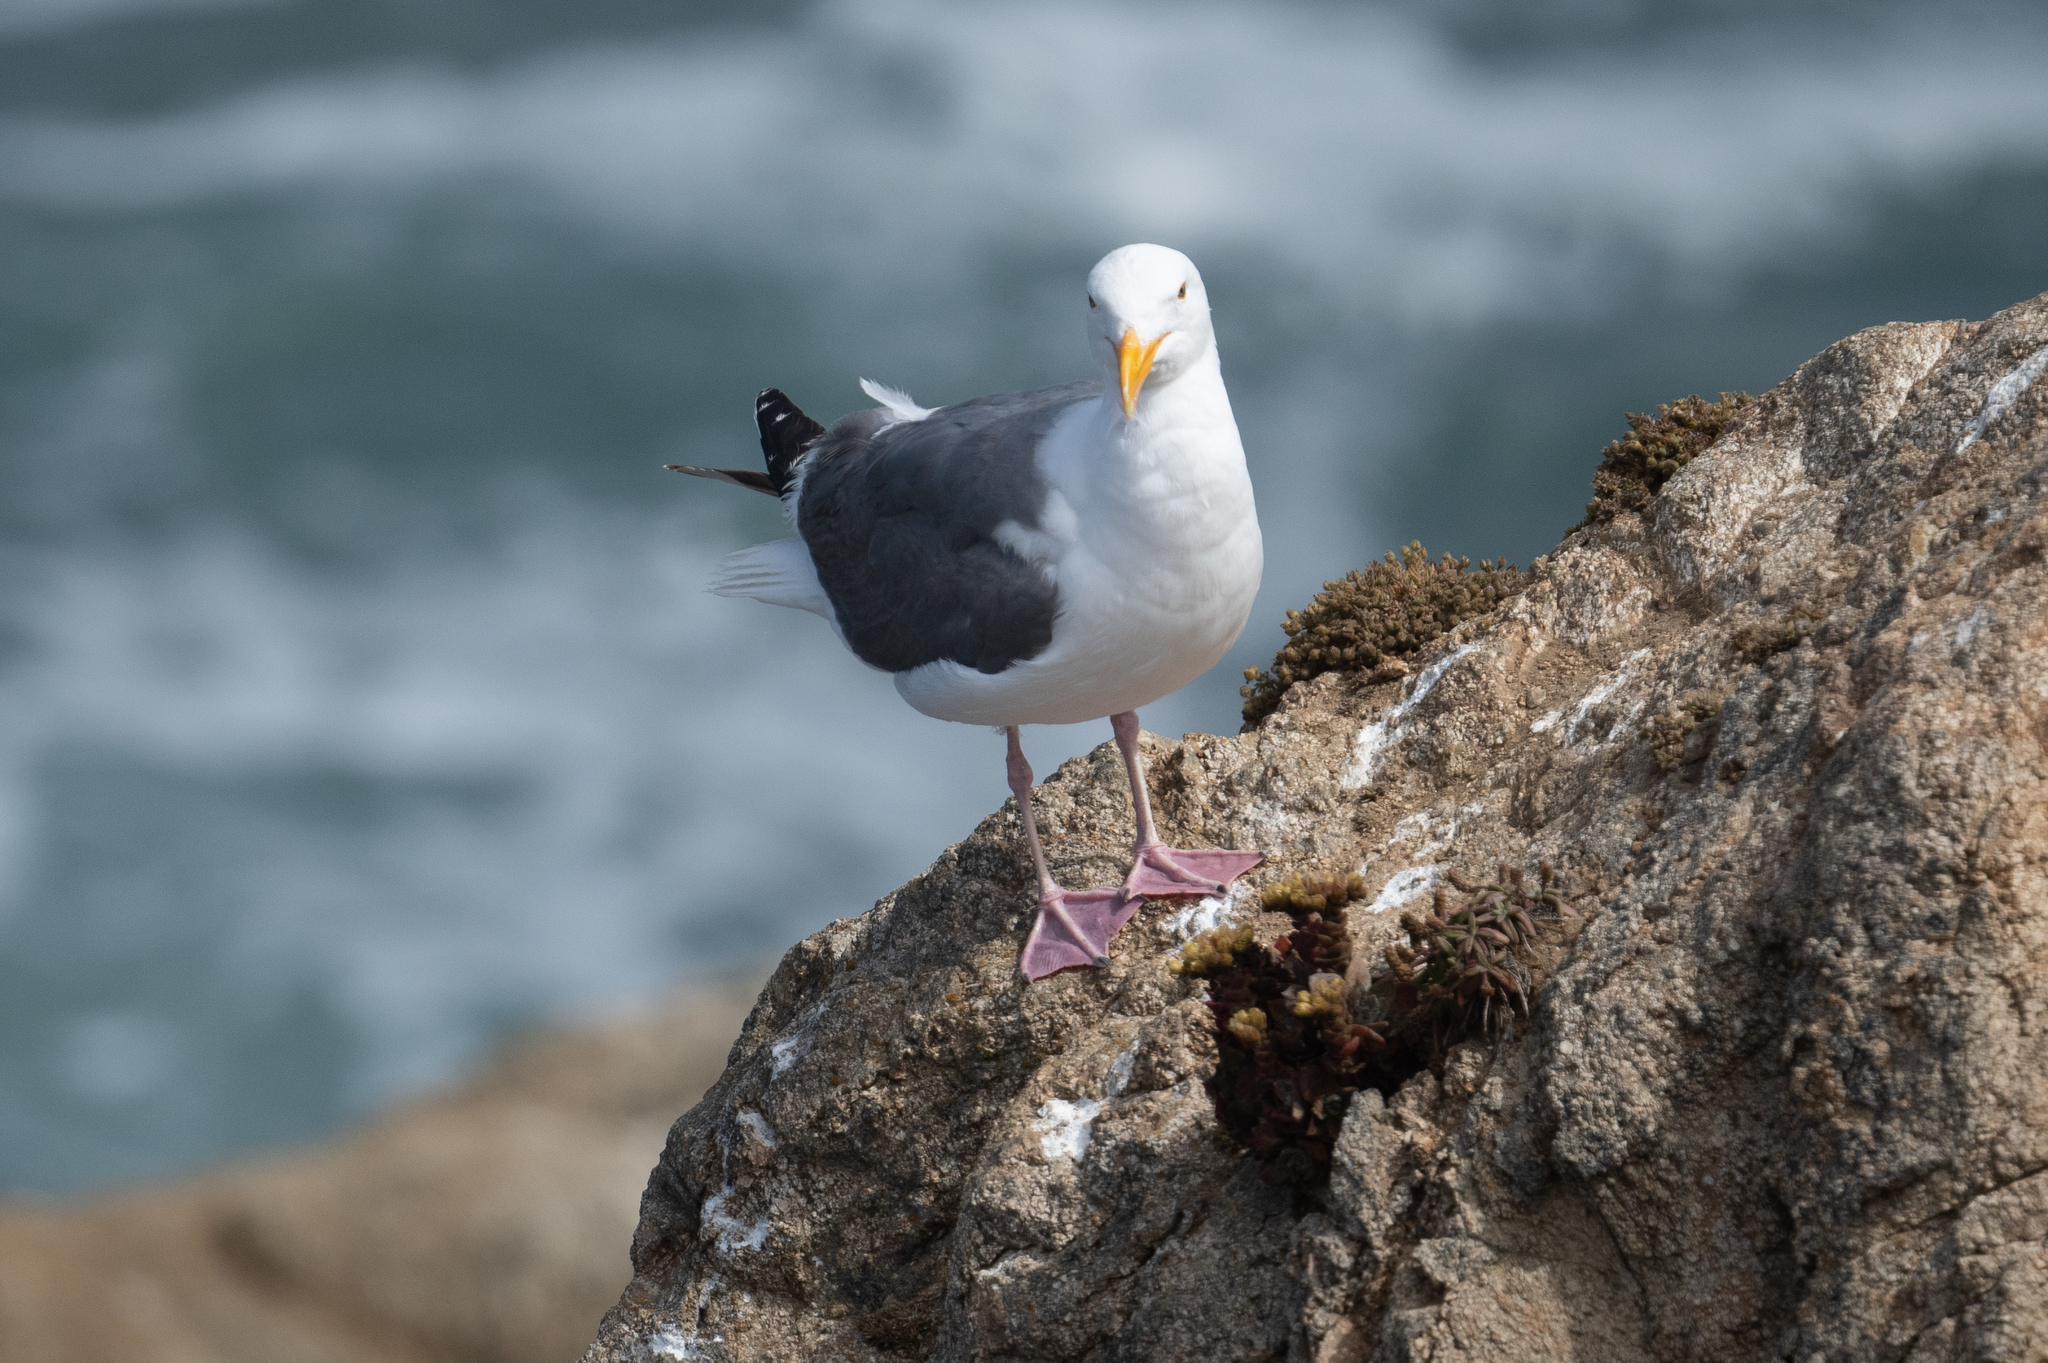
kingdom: Animalia
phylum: Chordata
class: Aves
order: Charadriiformes
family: Laridae
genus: Larus
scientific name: Larus occidentalis
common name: Western gull
